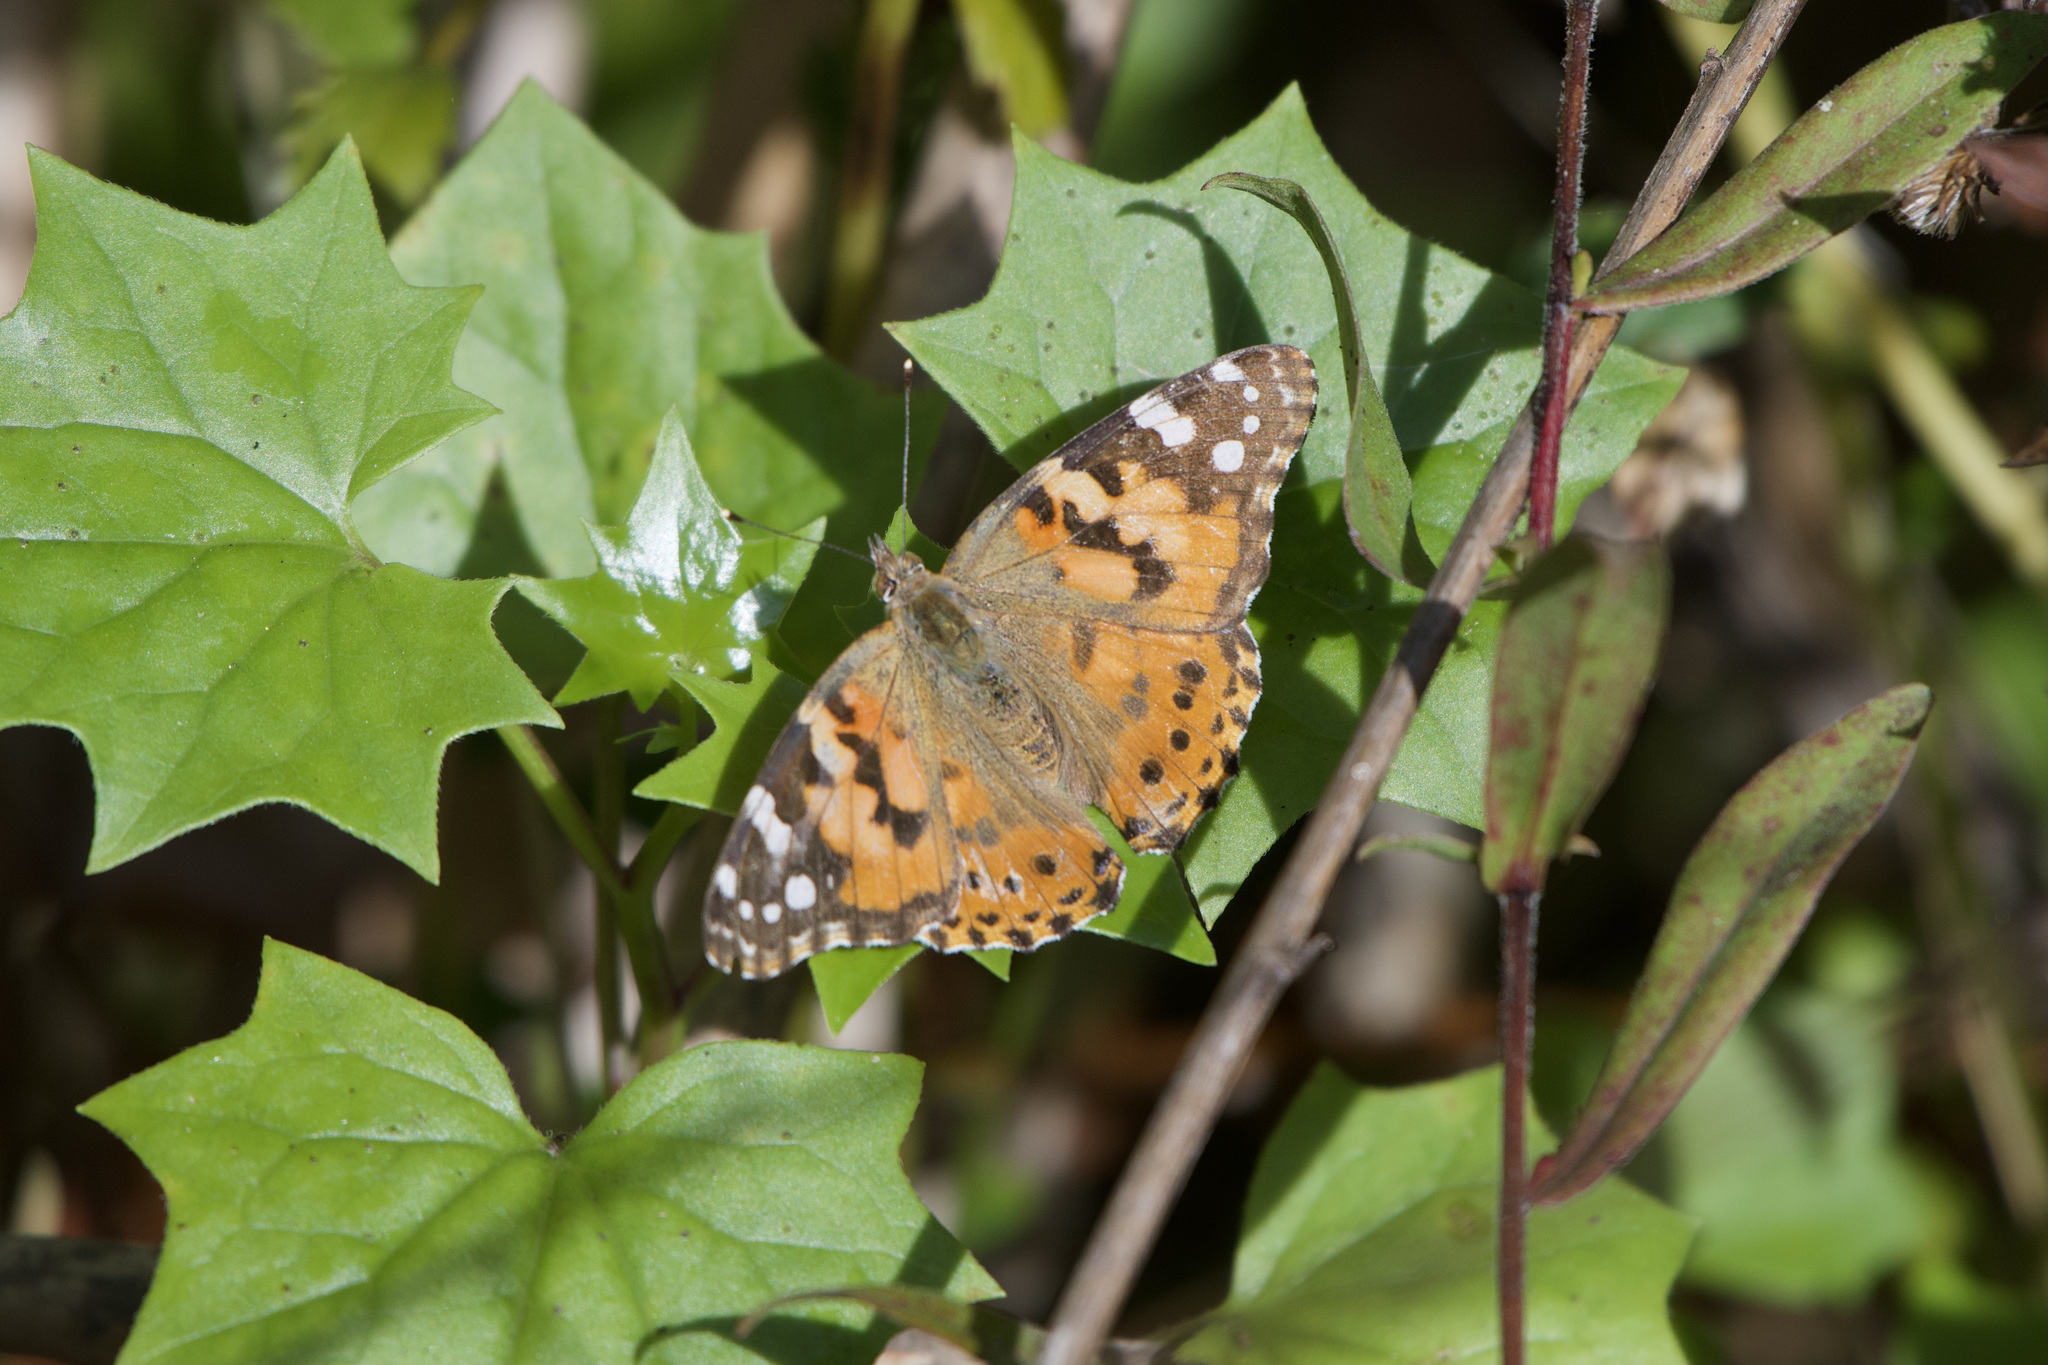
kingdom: Animalia
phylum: Arthropoda
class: Insecta
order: Lepidoptera
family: Nymphalidae
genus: Vanessa
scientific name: Vanessa cardui
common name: Painted lady
